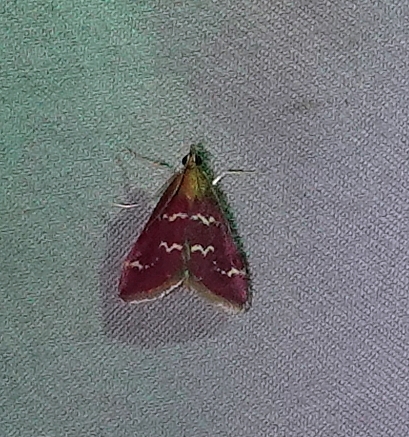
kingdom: Animalia
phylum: Arthropoda
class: Insecta
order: Lepidoptera
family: Crambidae
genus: Pyrausta
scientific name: Pyrausta signatalis
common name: Raspberry pyrausta moth
